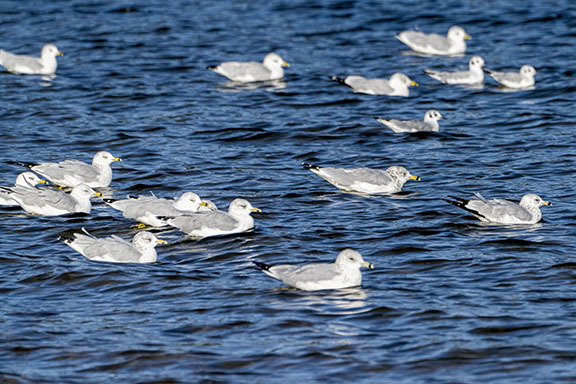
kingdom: Animalia
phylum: Chordata
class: Aves
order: Charadriiformes
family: Laridae
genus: Larus
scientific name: Larus delawarensis
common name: Ring-billed gull
